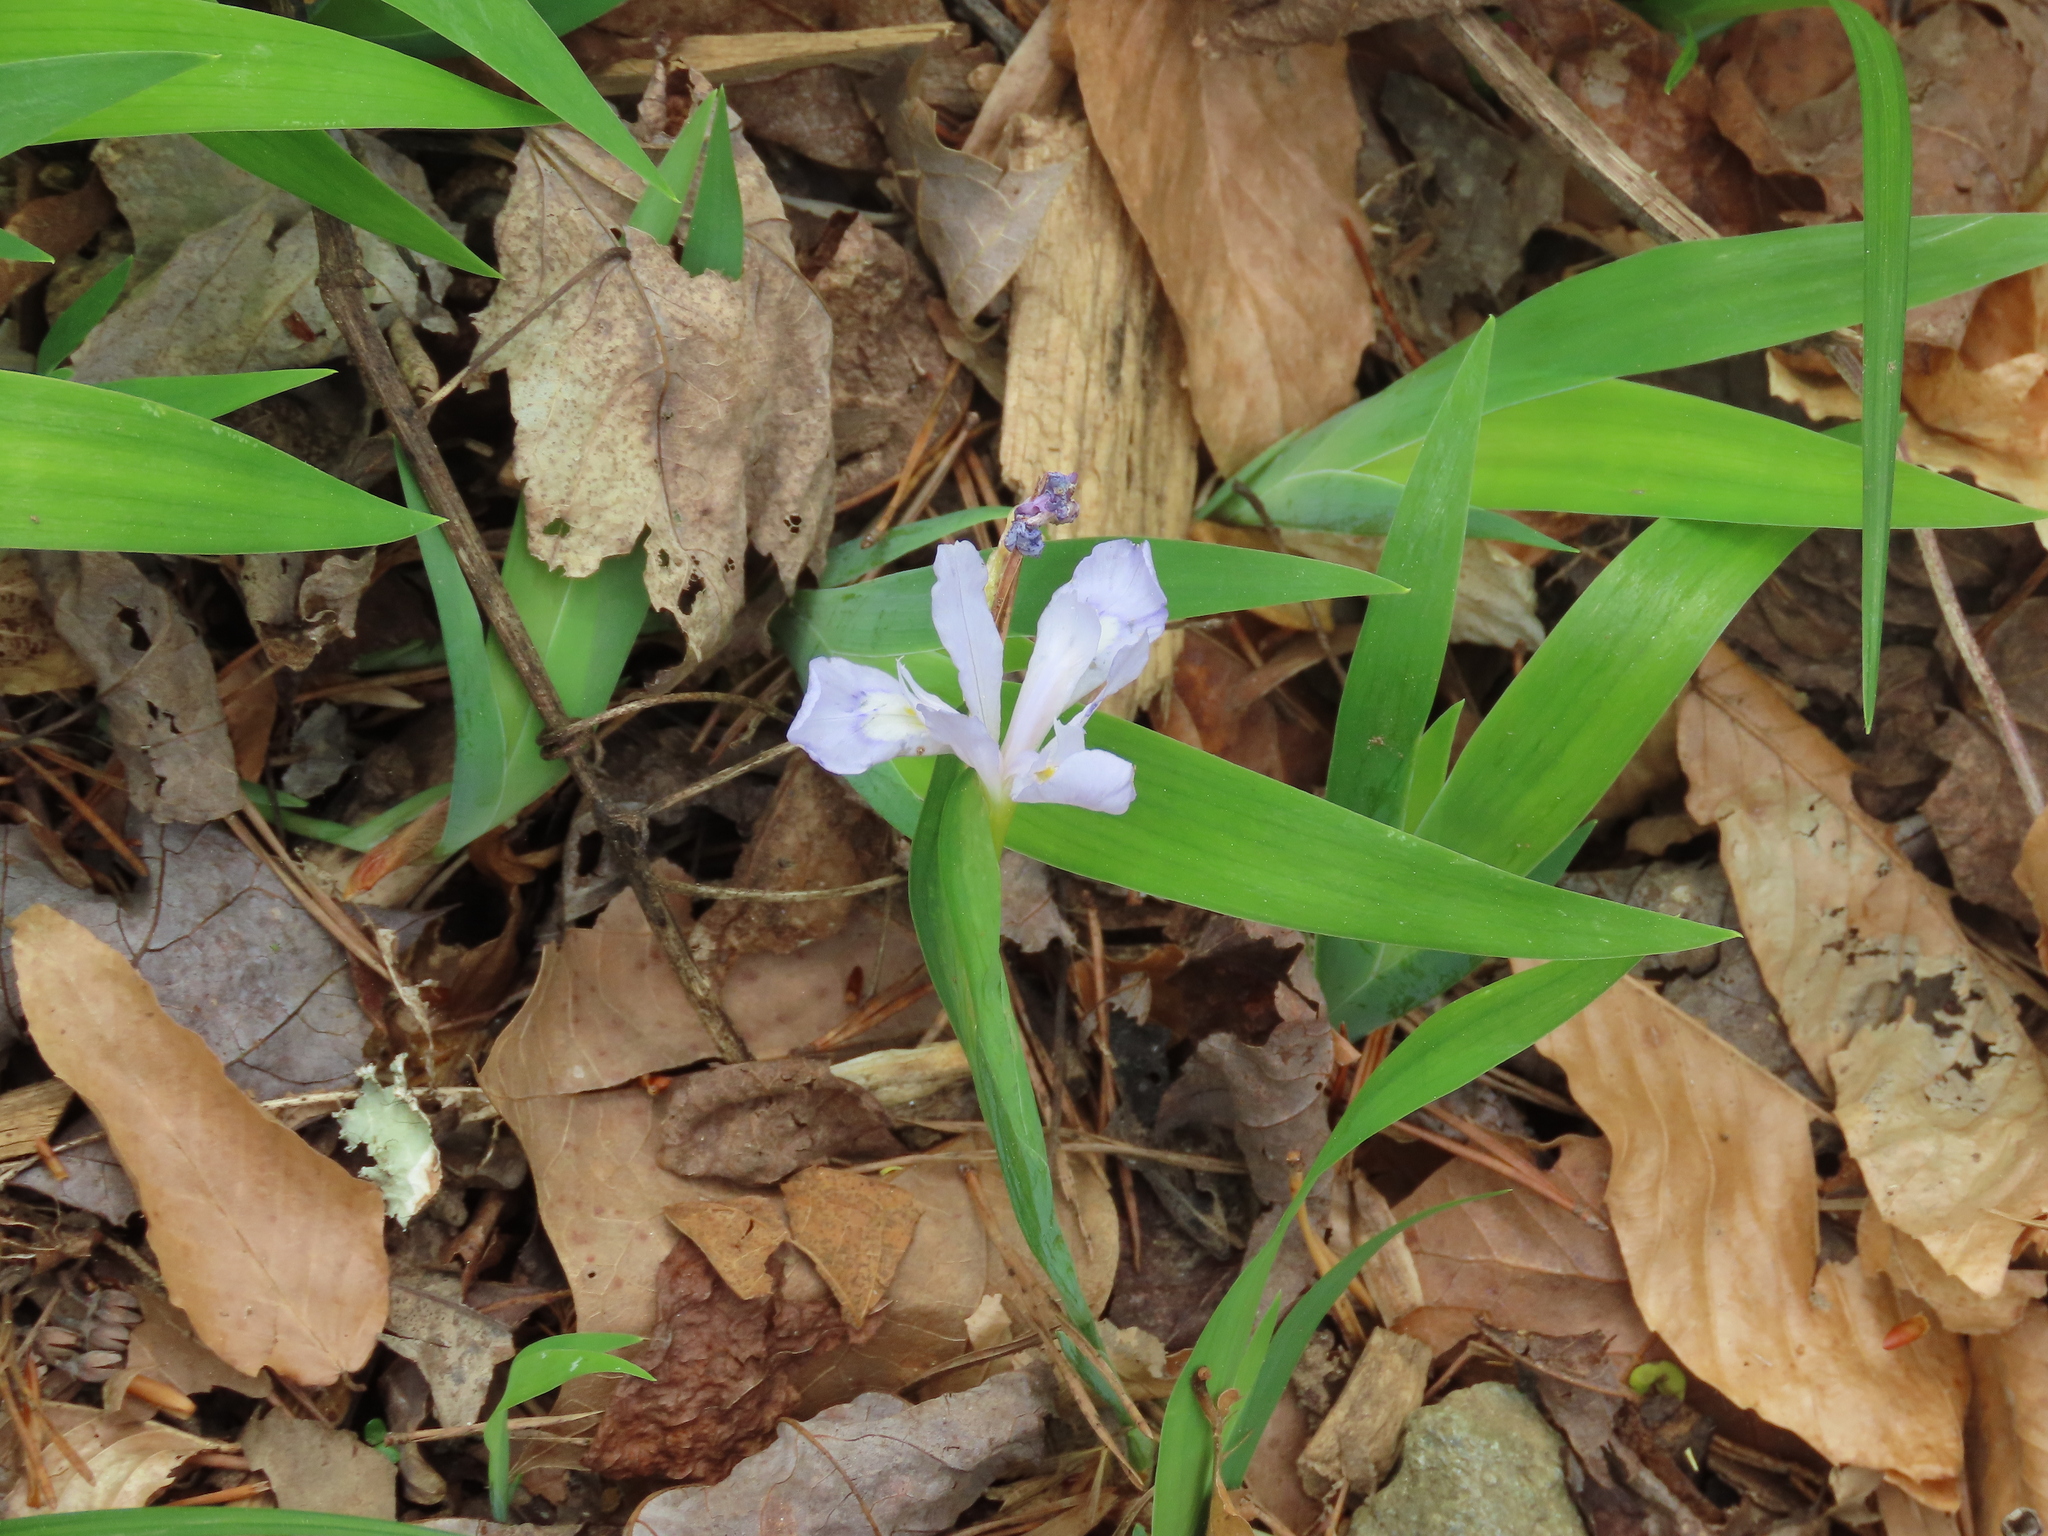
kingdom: Plantae
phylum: Tracheophyta
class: Liliopsida
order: Asparagales
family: Iridaceae
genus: Iris
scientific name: Iris cristata
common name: Crested iris
